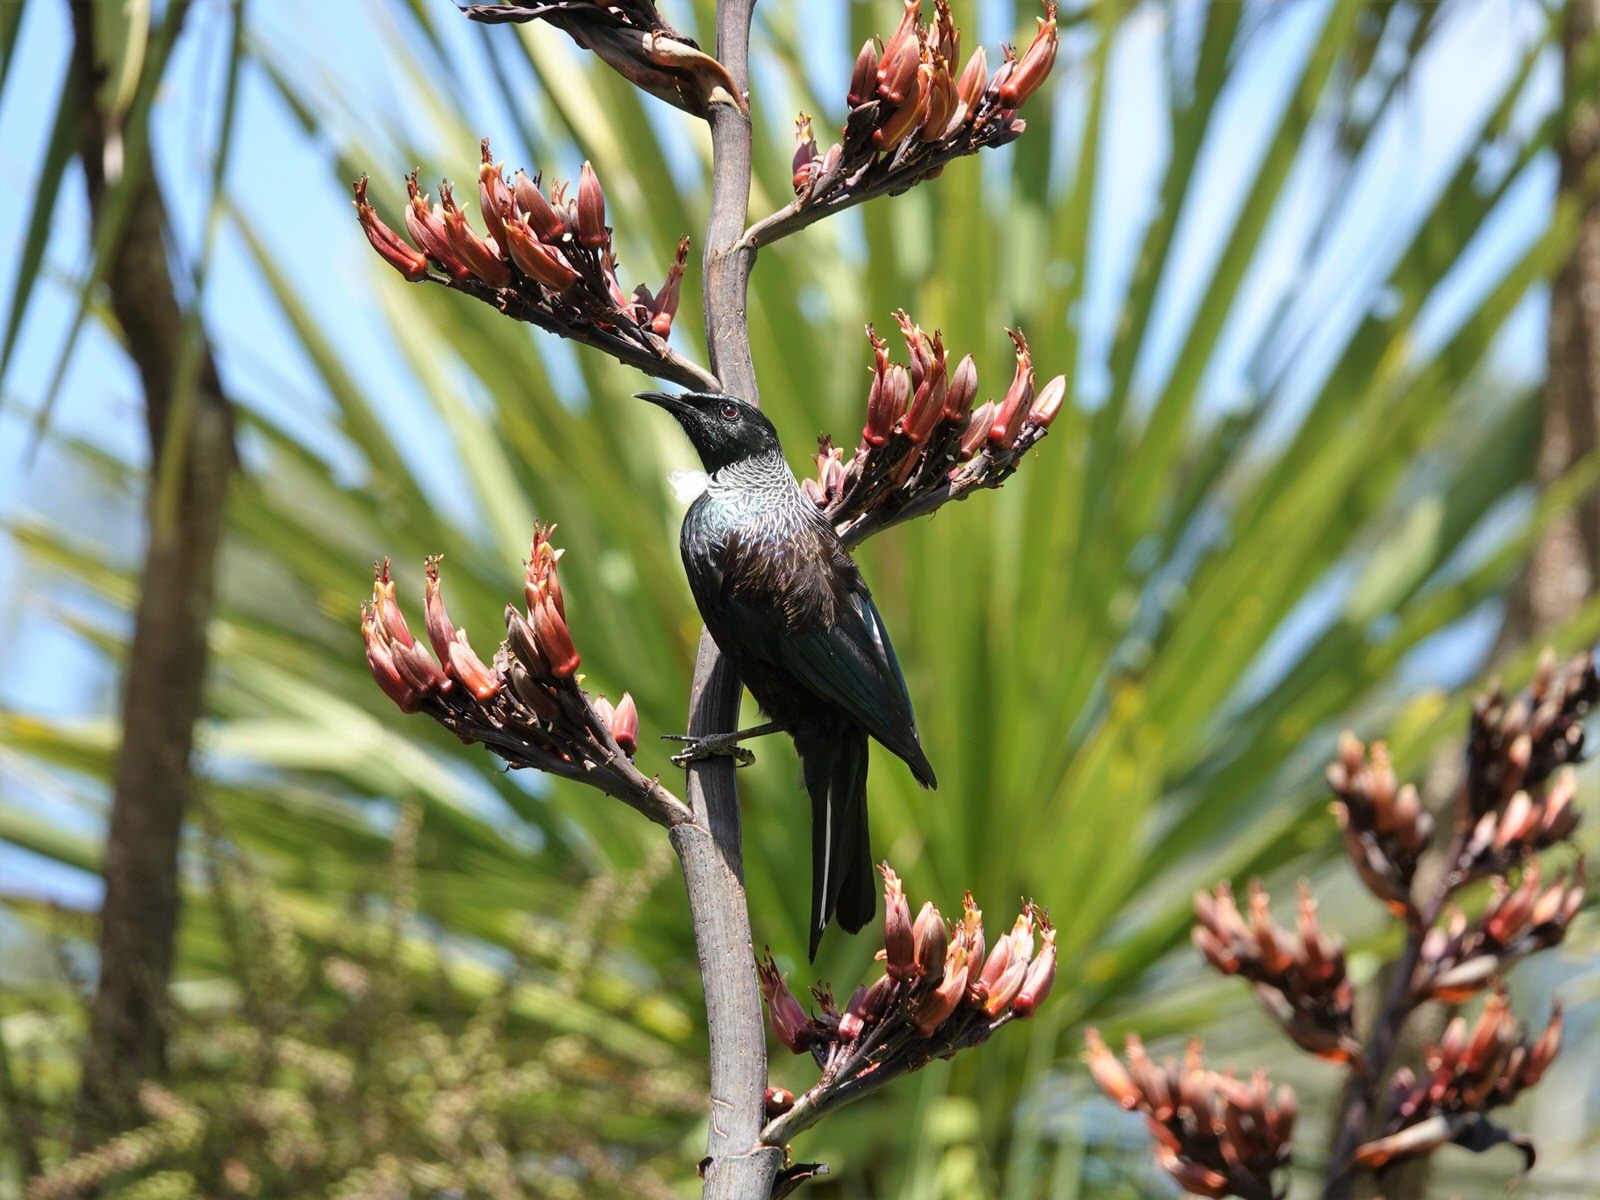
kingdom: Animalia
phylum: Chordata
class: Aves
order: Passeriformes
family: Meliphagidae
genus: Prosthemadera
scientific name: Prosthemadera novaeseelandiae
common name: Tui
